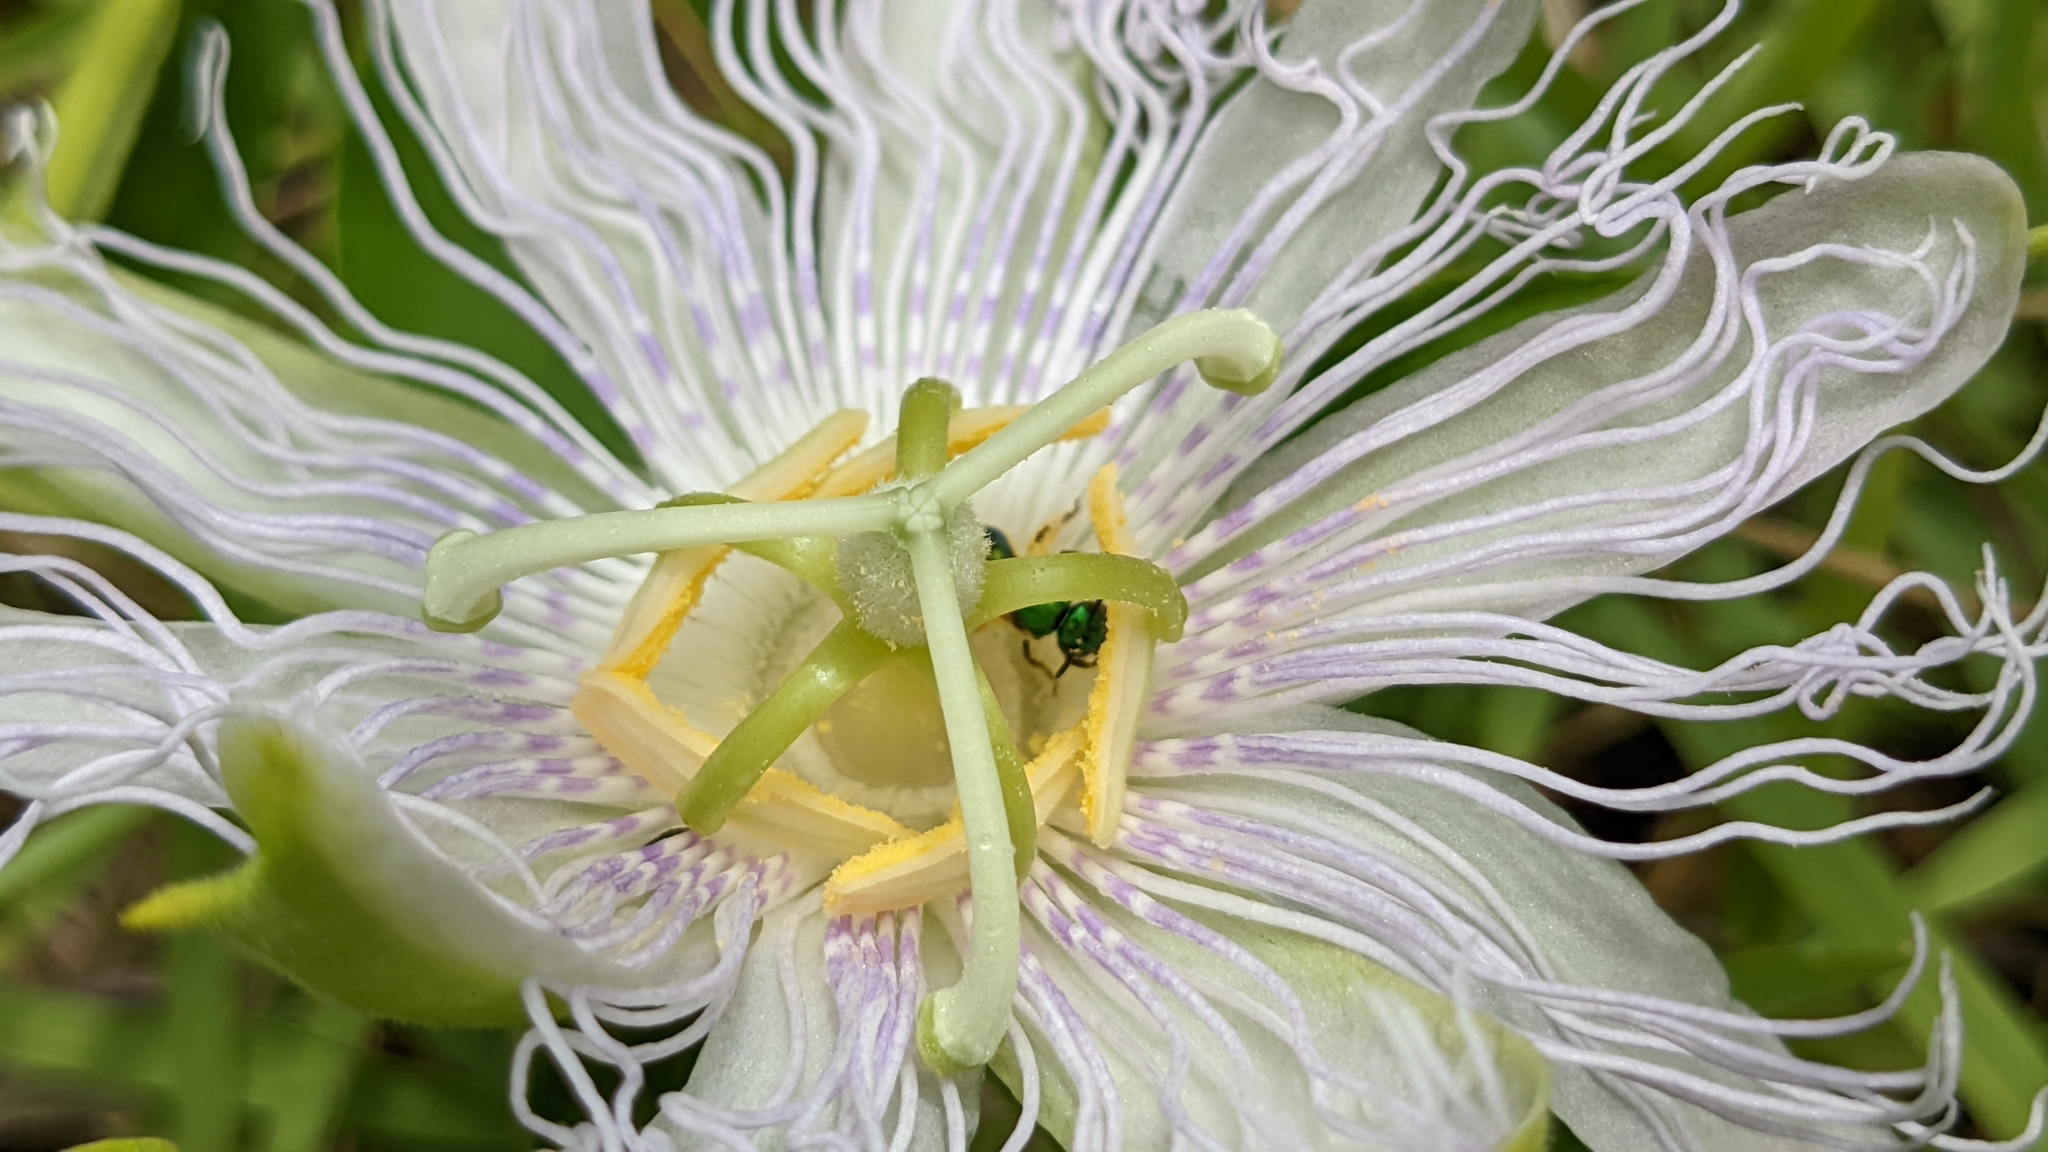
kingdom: Plantae
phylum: Tracheophyta
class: Magnoliopsida
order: Malpighiales
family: Passifloraceae
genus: Passiflora
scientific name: Passiflora incarnata
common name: Apricot-vine
